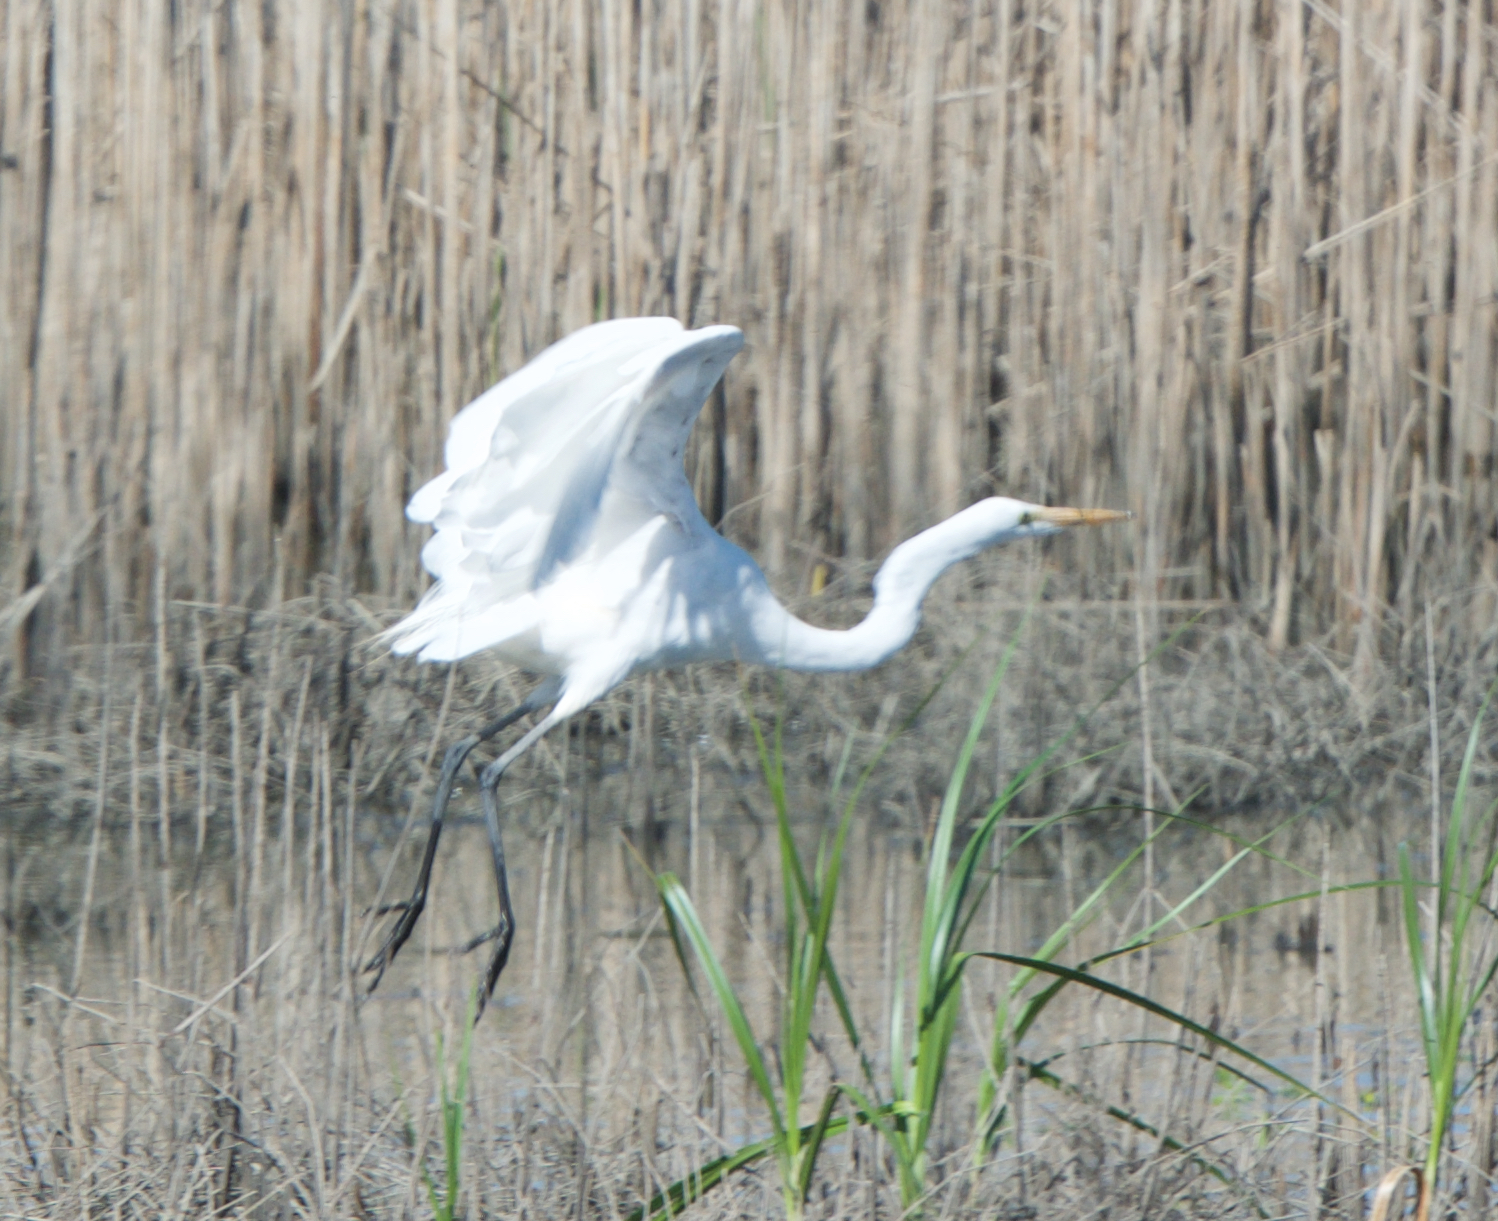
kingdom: Animalia
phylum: Chordata
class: Aves
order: Pelecaniformes
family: Ardeidae
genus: Ardea
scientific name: Ardea alba
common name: Great egret
